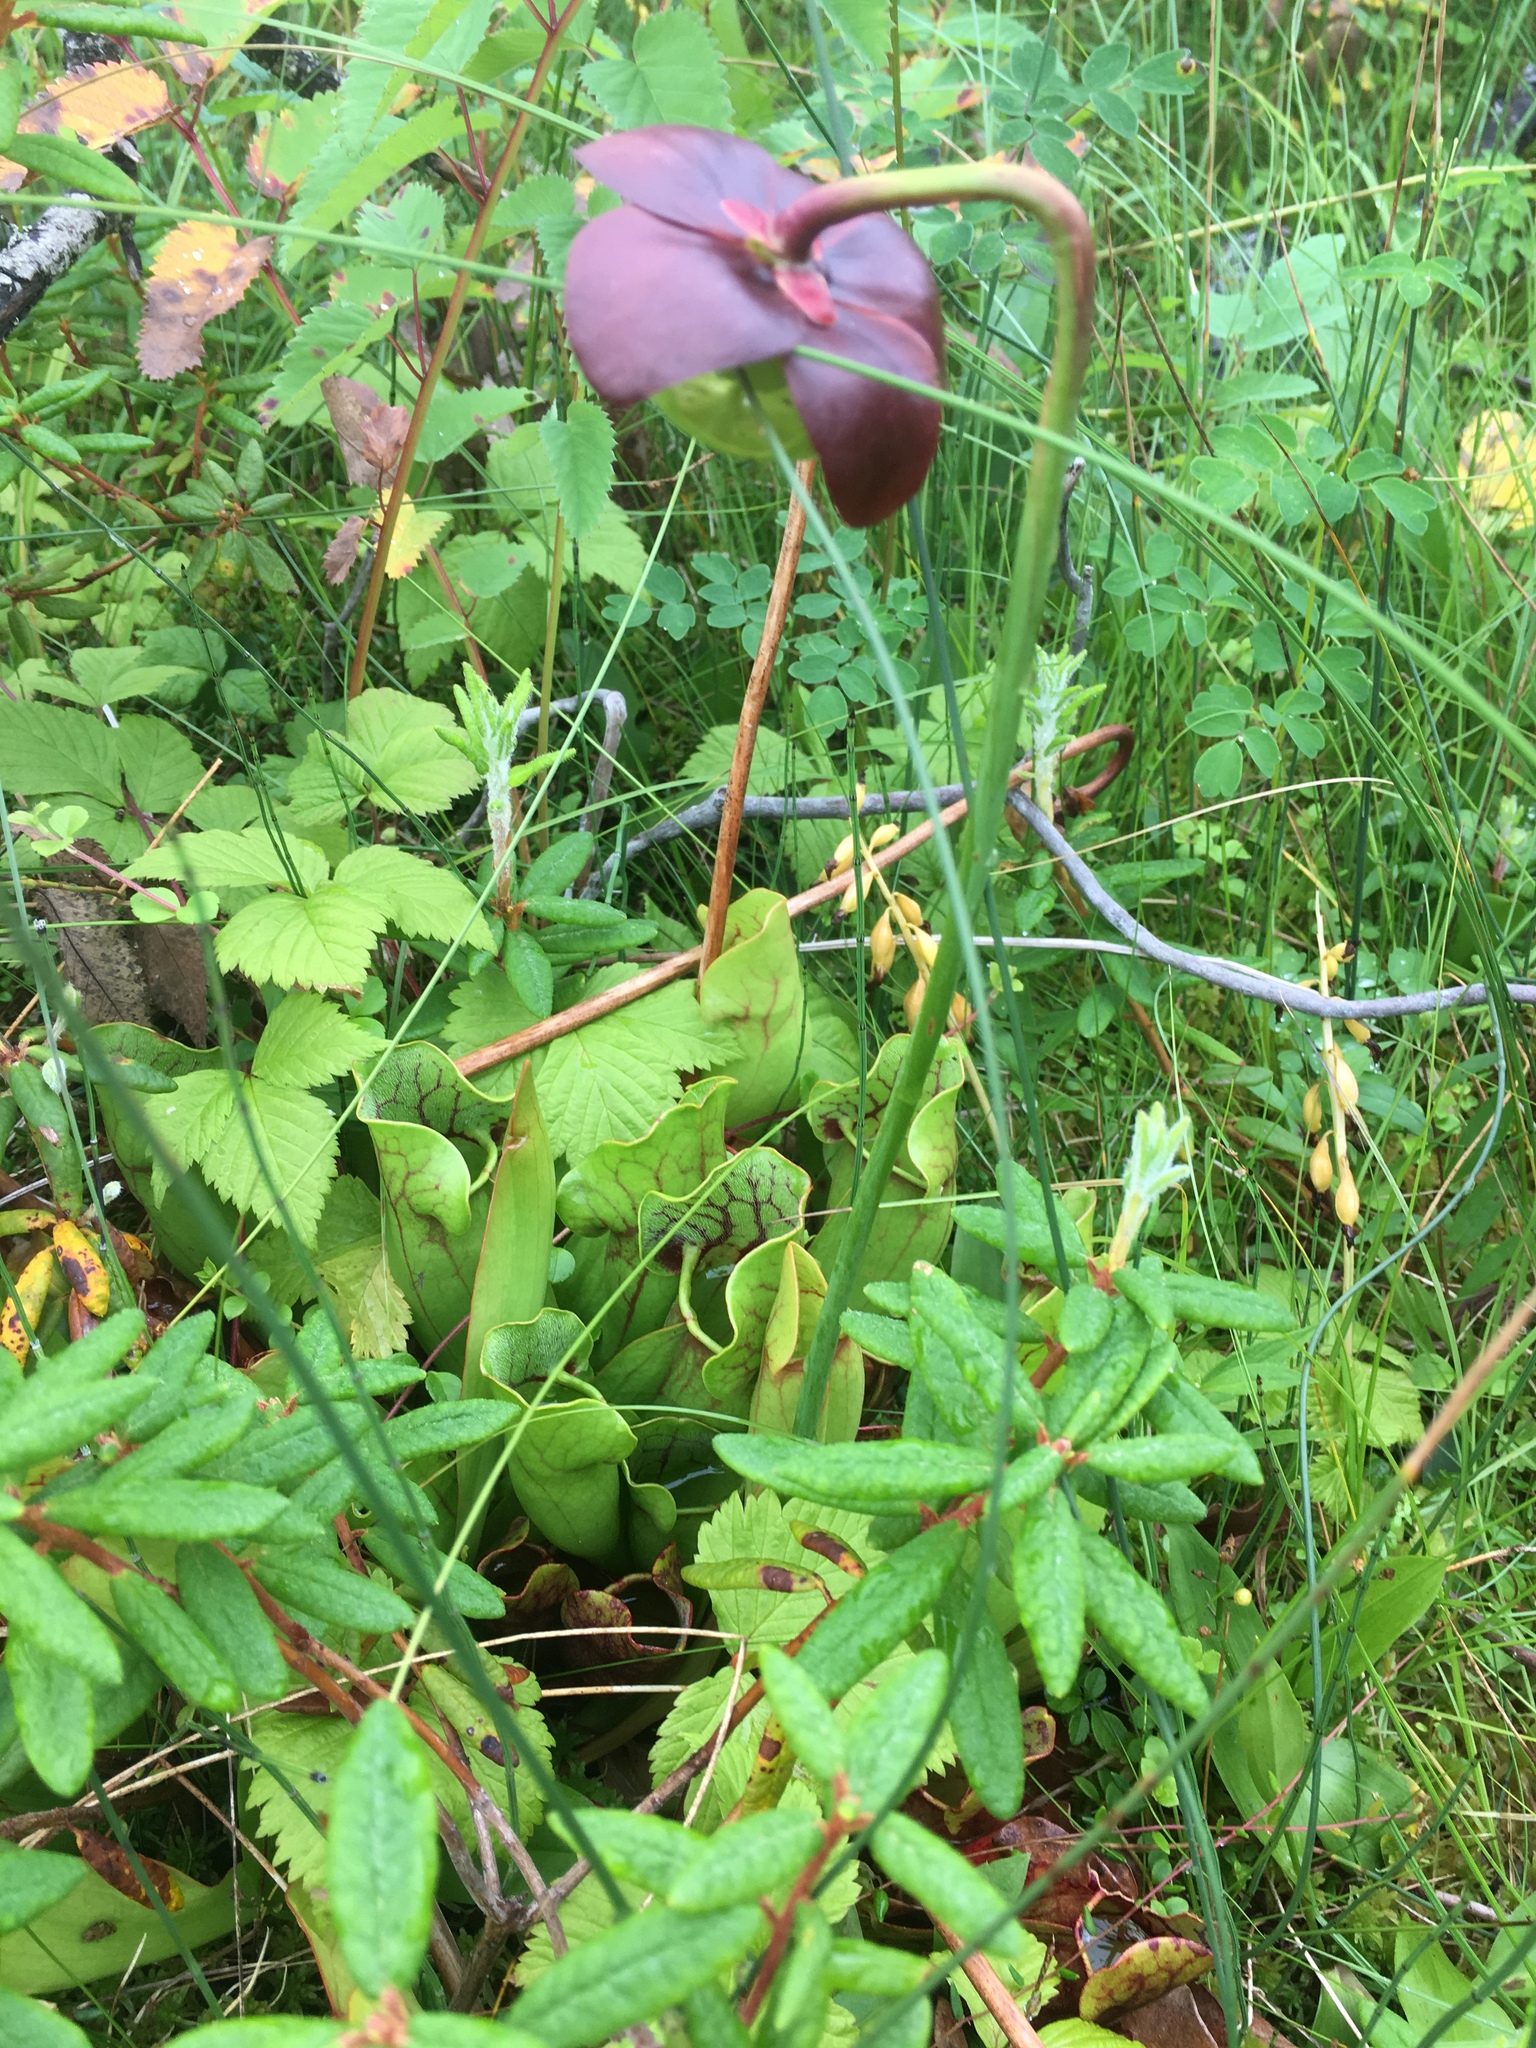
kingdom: Plantae
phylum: Tracheophyta
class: Magnoliopsida
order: Ericales
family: Ericaceae
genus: Rhododendron
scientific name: Rhododendron groenlandicum
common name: Bog labrador tea
